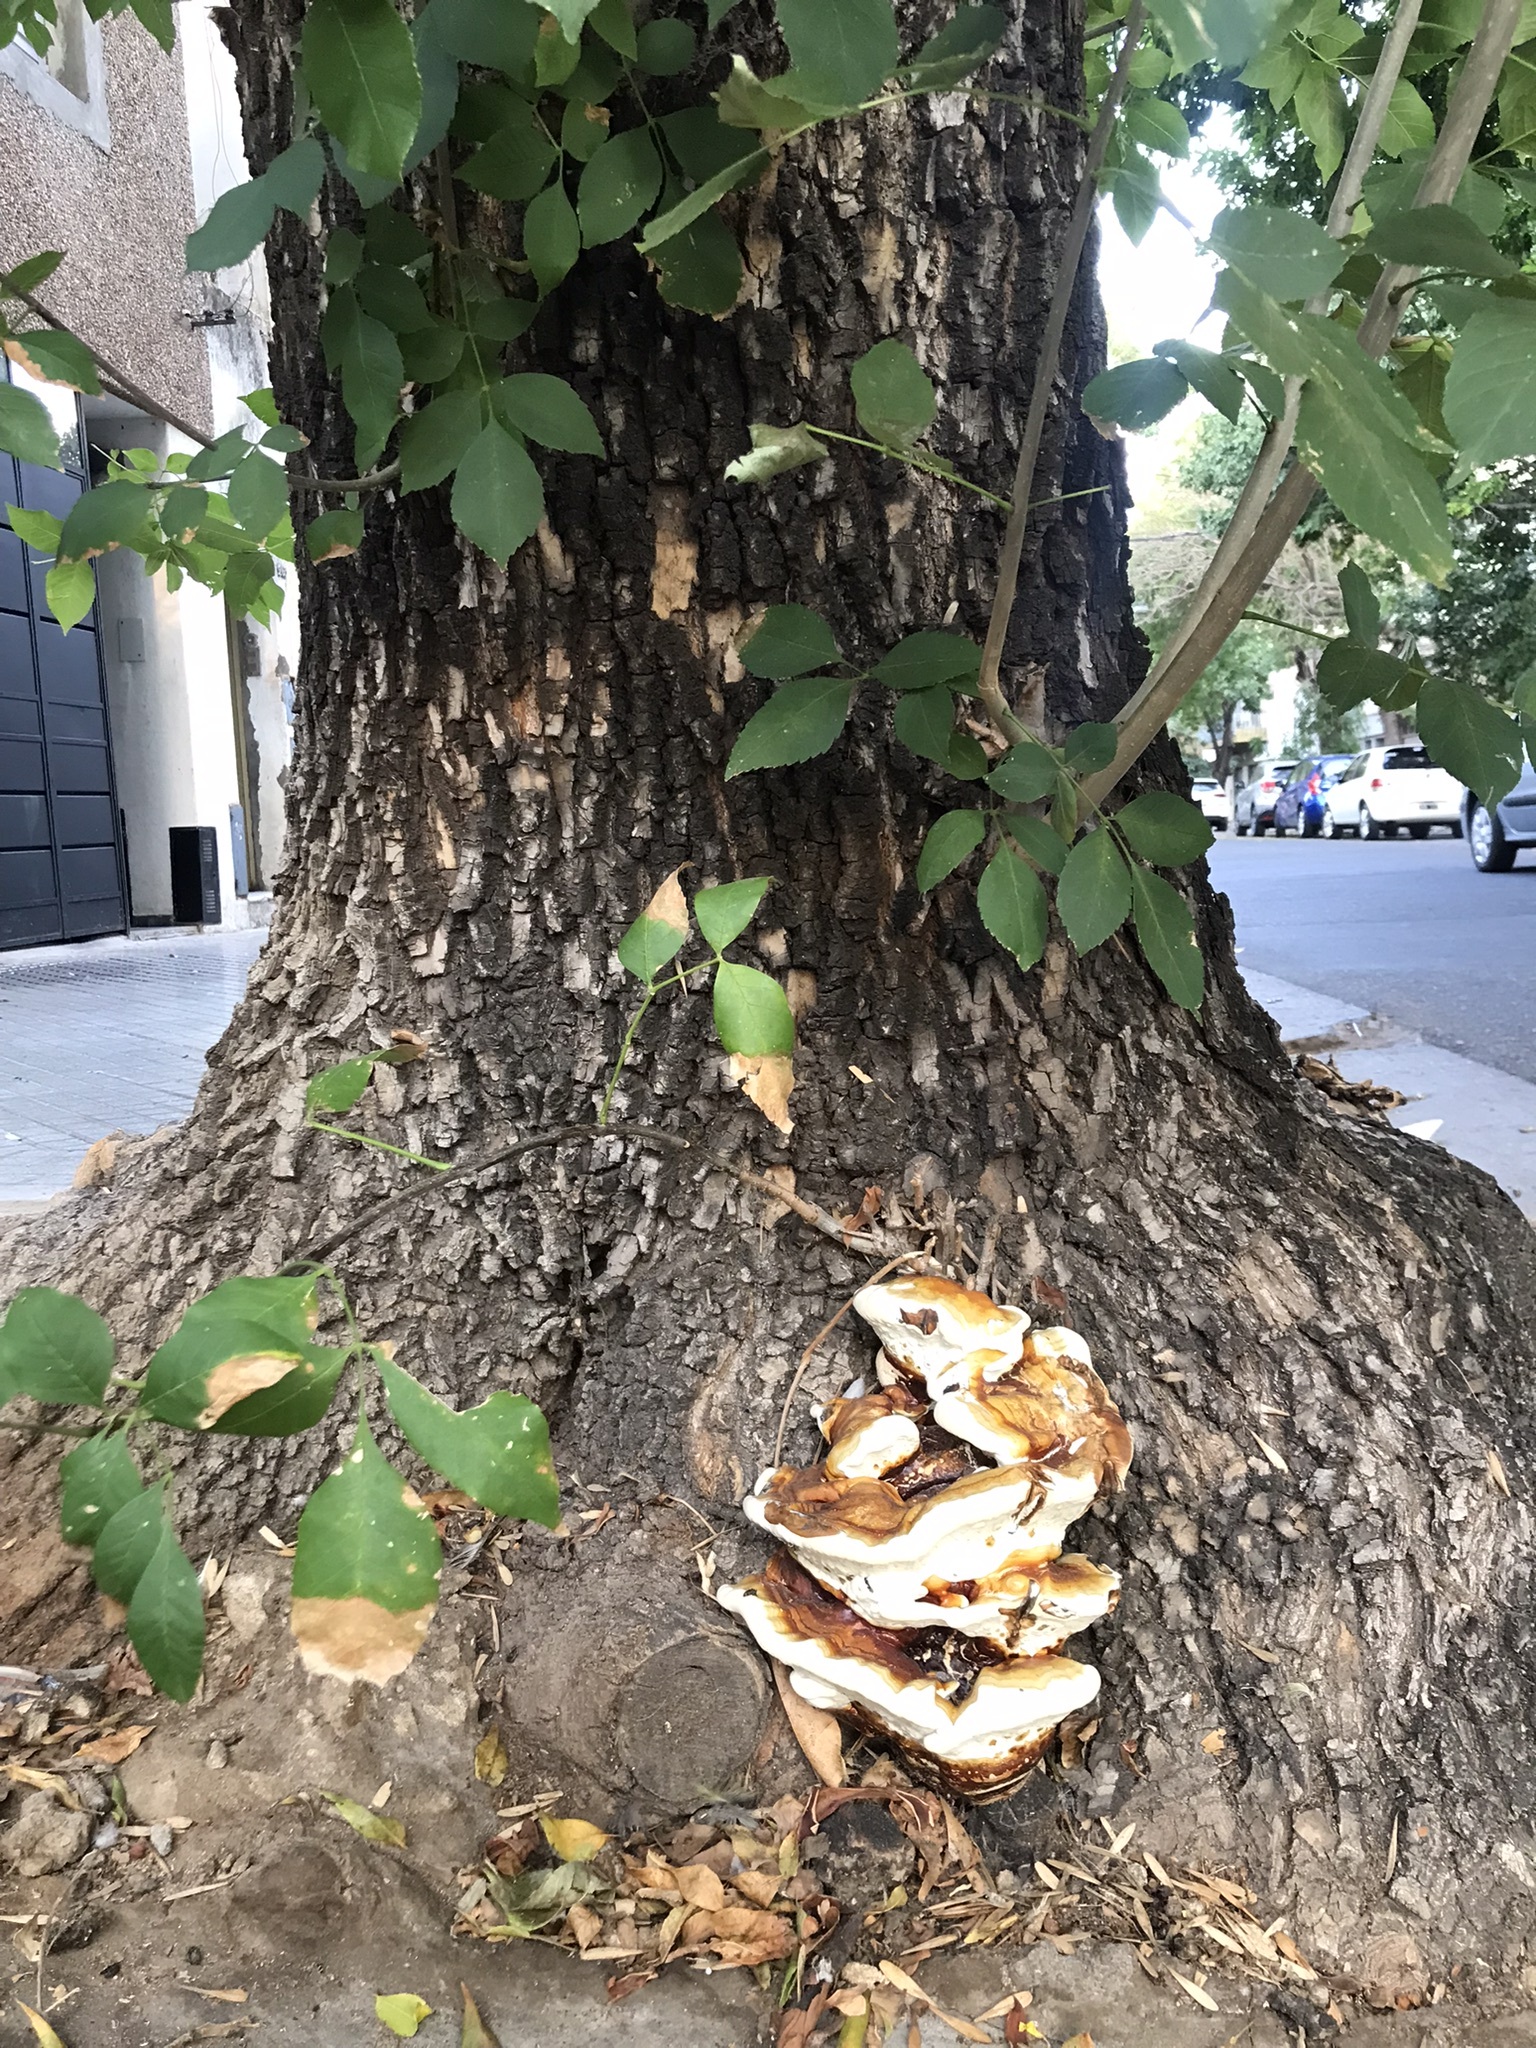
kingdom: Fungi
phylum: Basidiomycota
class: Agaricomycetes
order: Polyporales
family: Polyporaceae
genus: Ganoderma
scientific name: Ganoderma resinaceum
